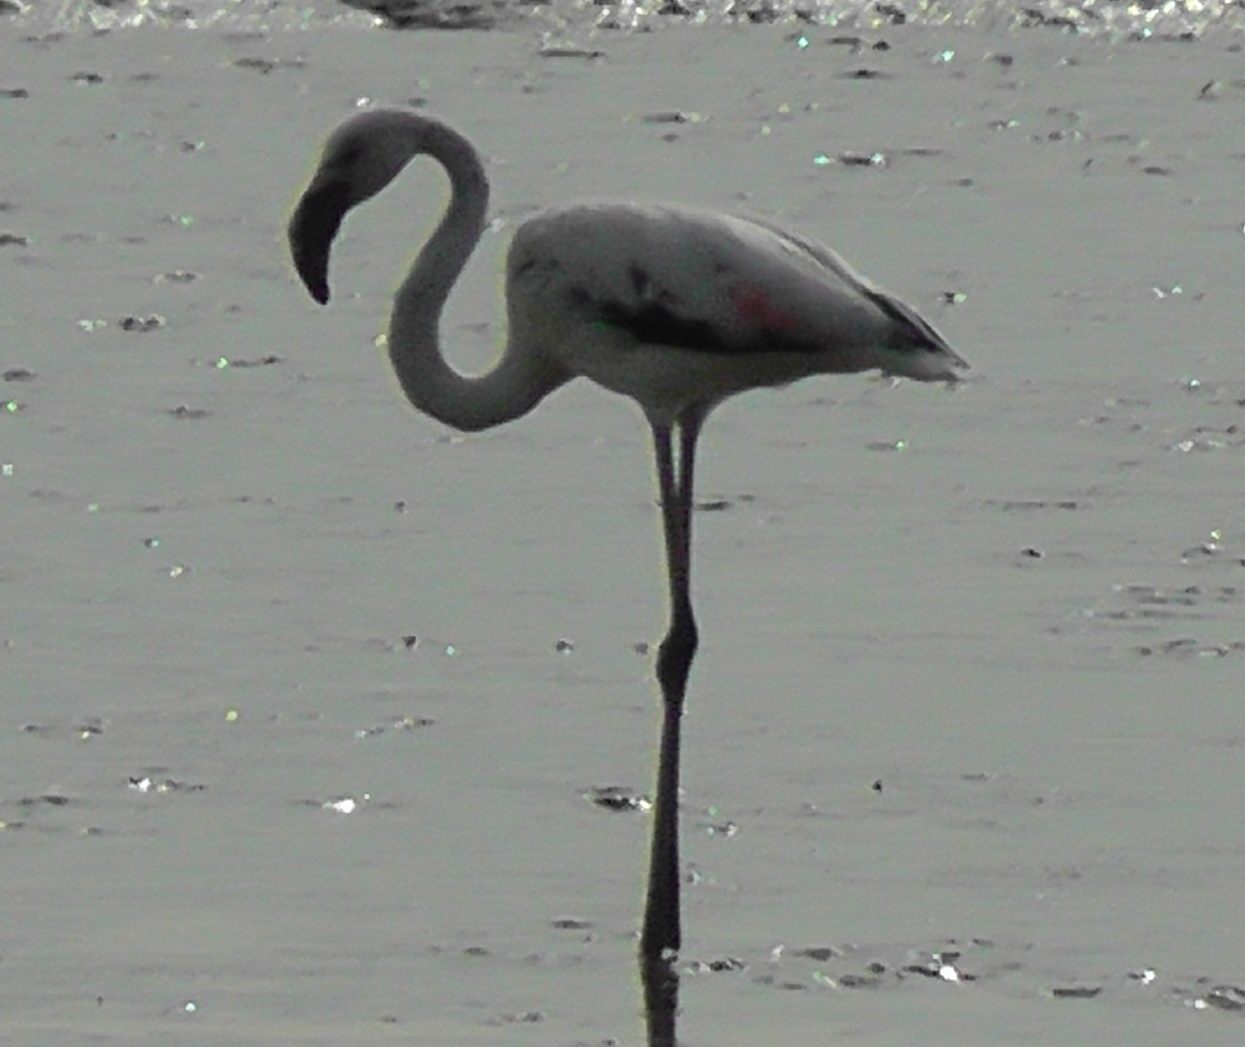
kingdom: Animalia
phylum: Chordata
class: Aves
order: Phoenicopteriformes
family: Phoenicopteridae
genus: Phoenicopterus
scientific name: Phoenicopterus roseus
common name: Greater flamingo
